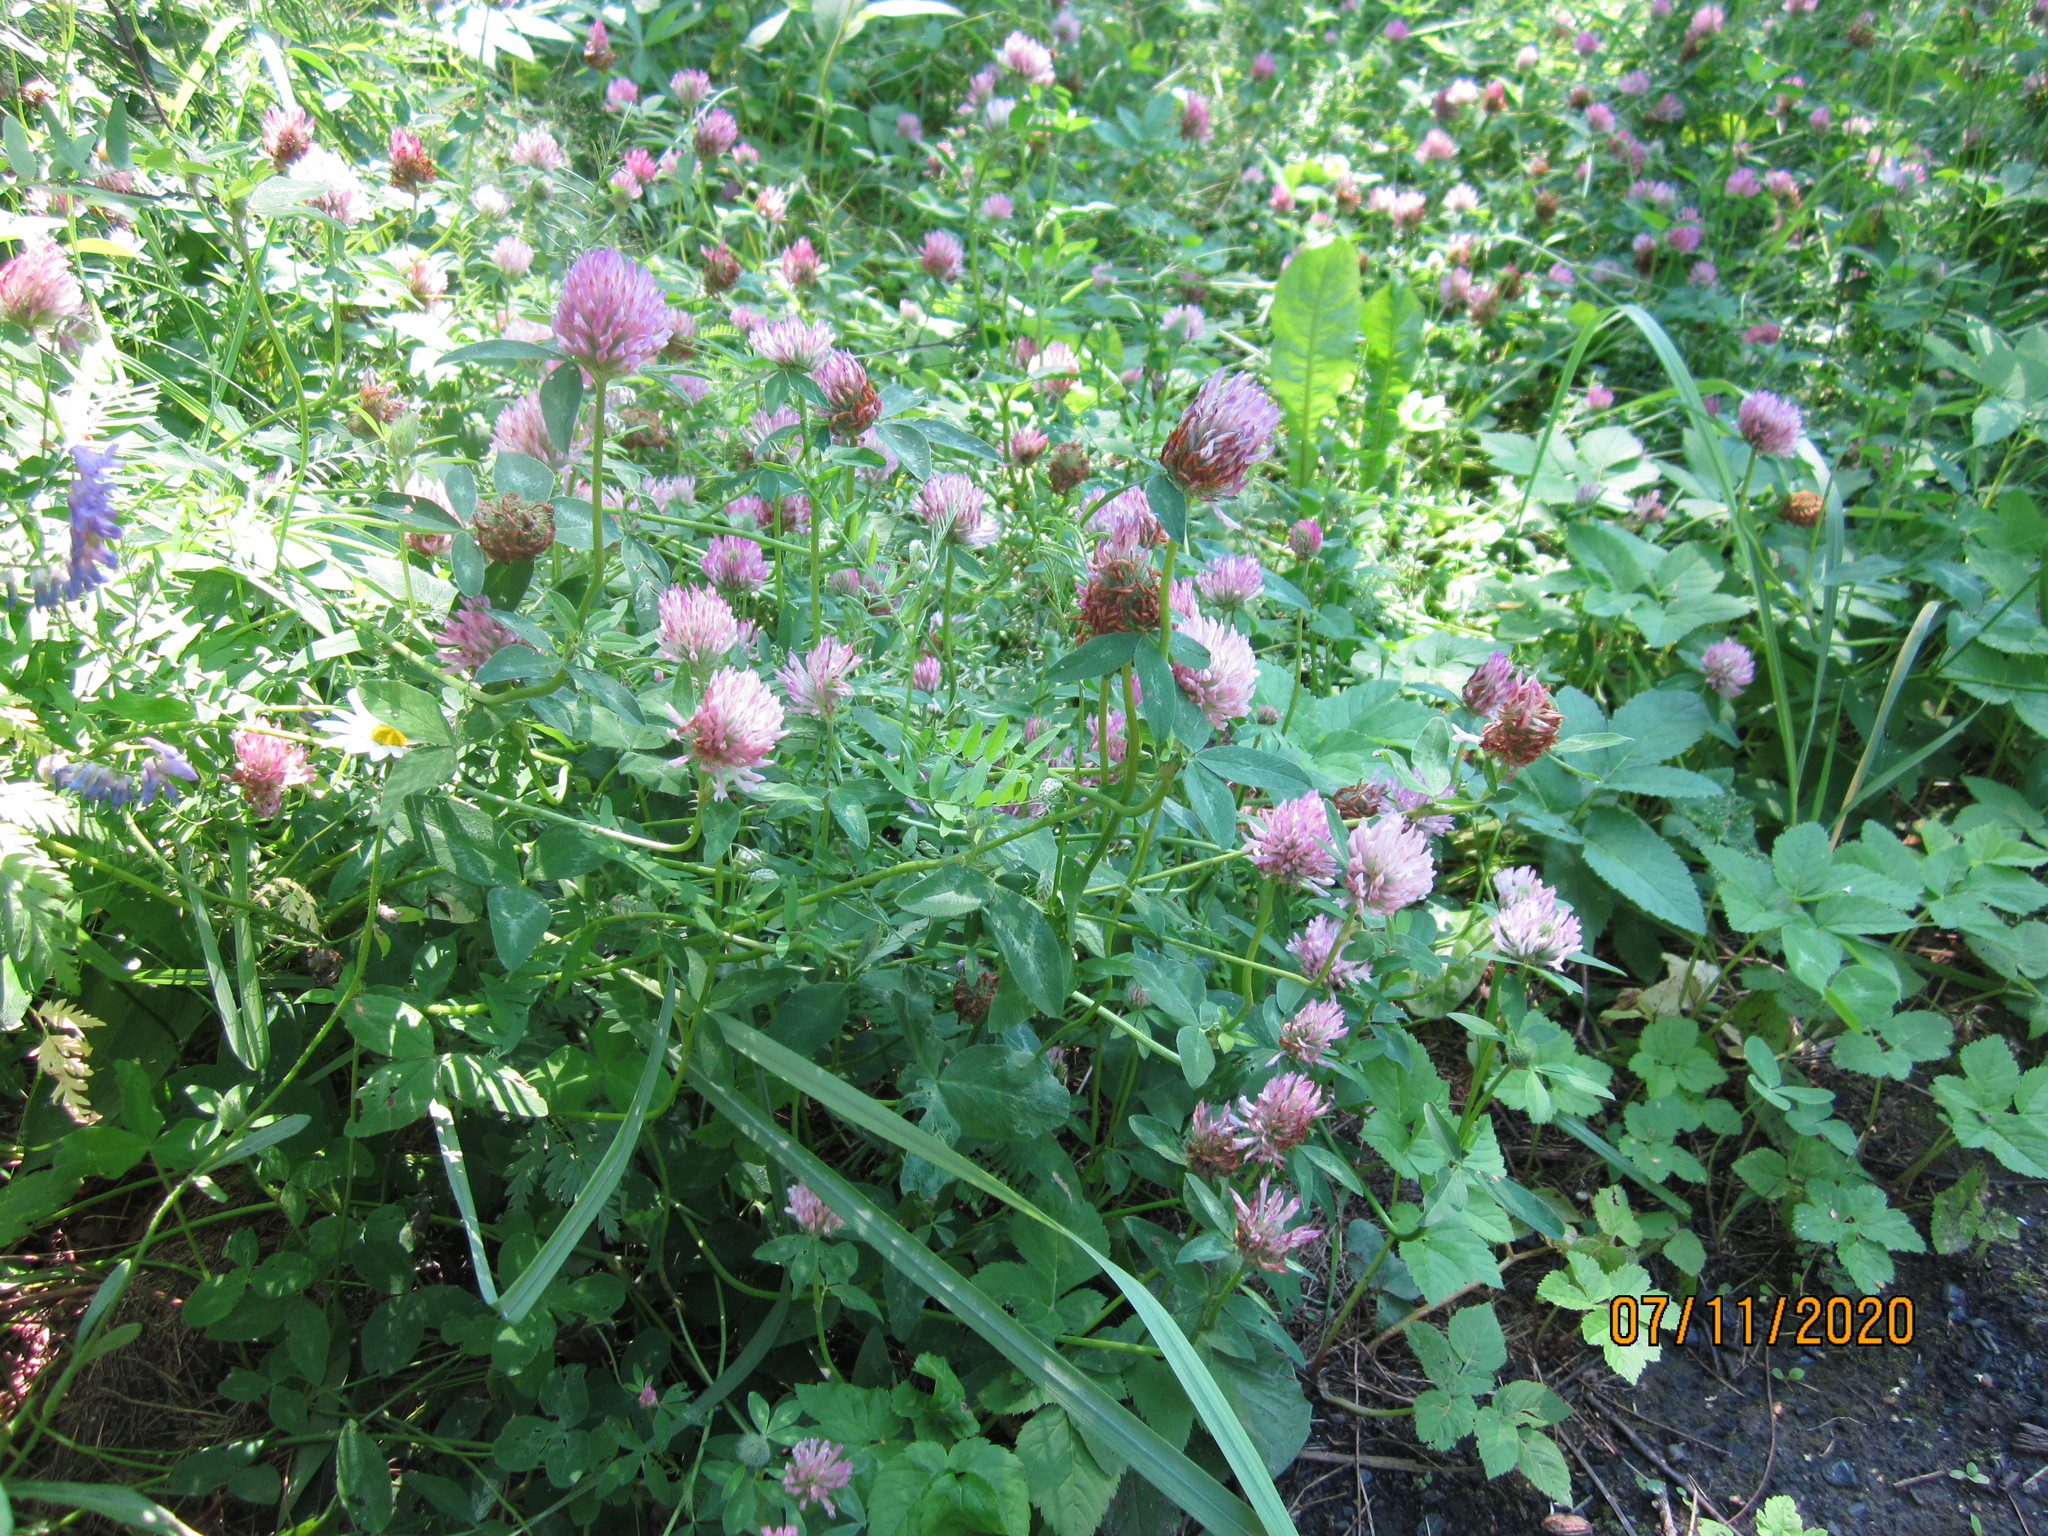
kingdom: Plantae
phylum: Tracheophyta
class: Magnoliopsida
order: Fabales
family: Fabaceae
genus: Trifolium
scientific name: Trifolium pratense
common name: Red clover
